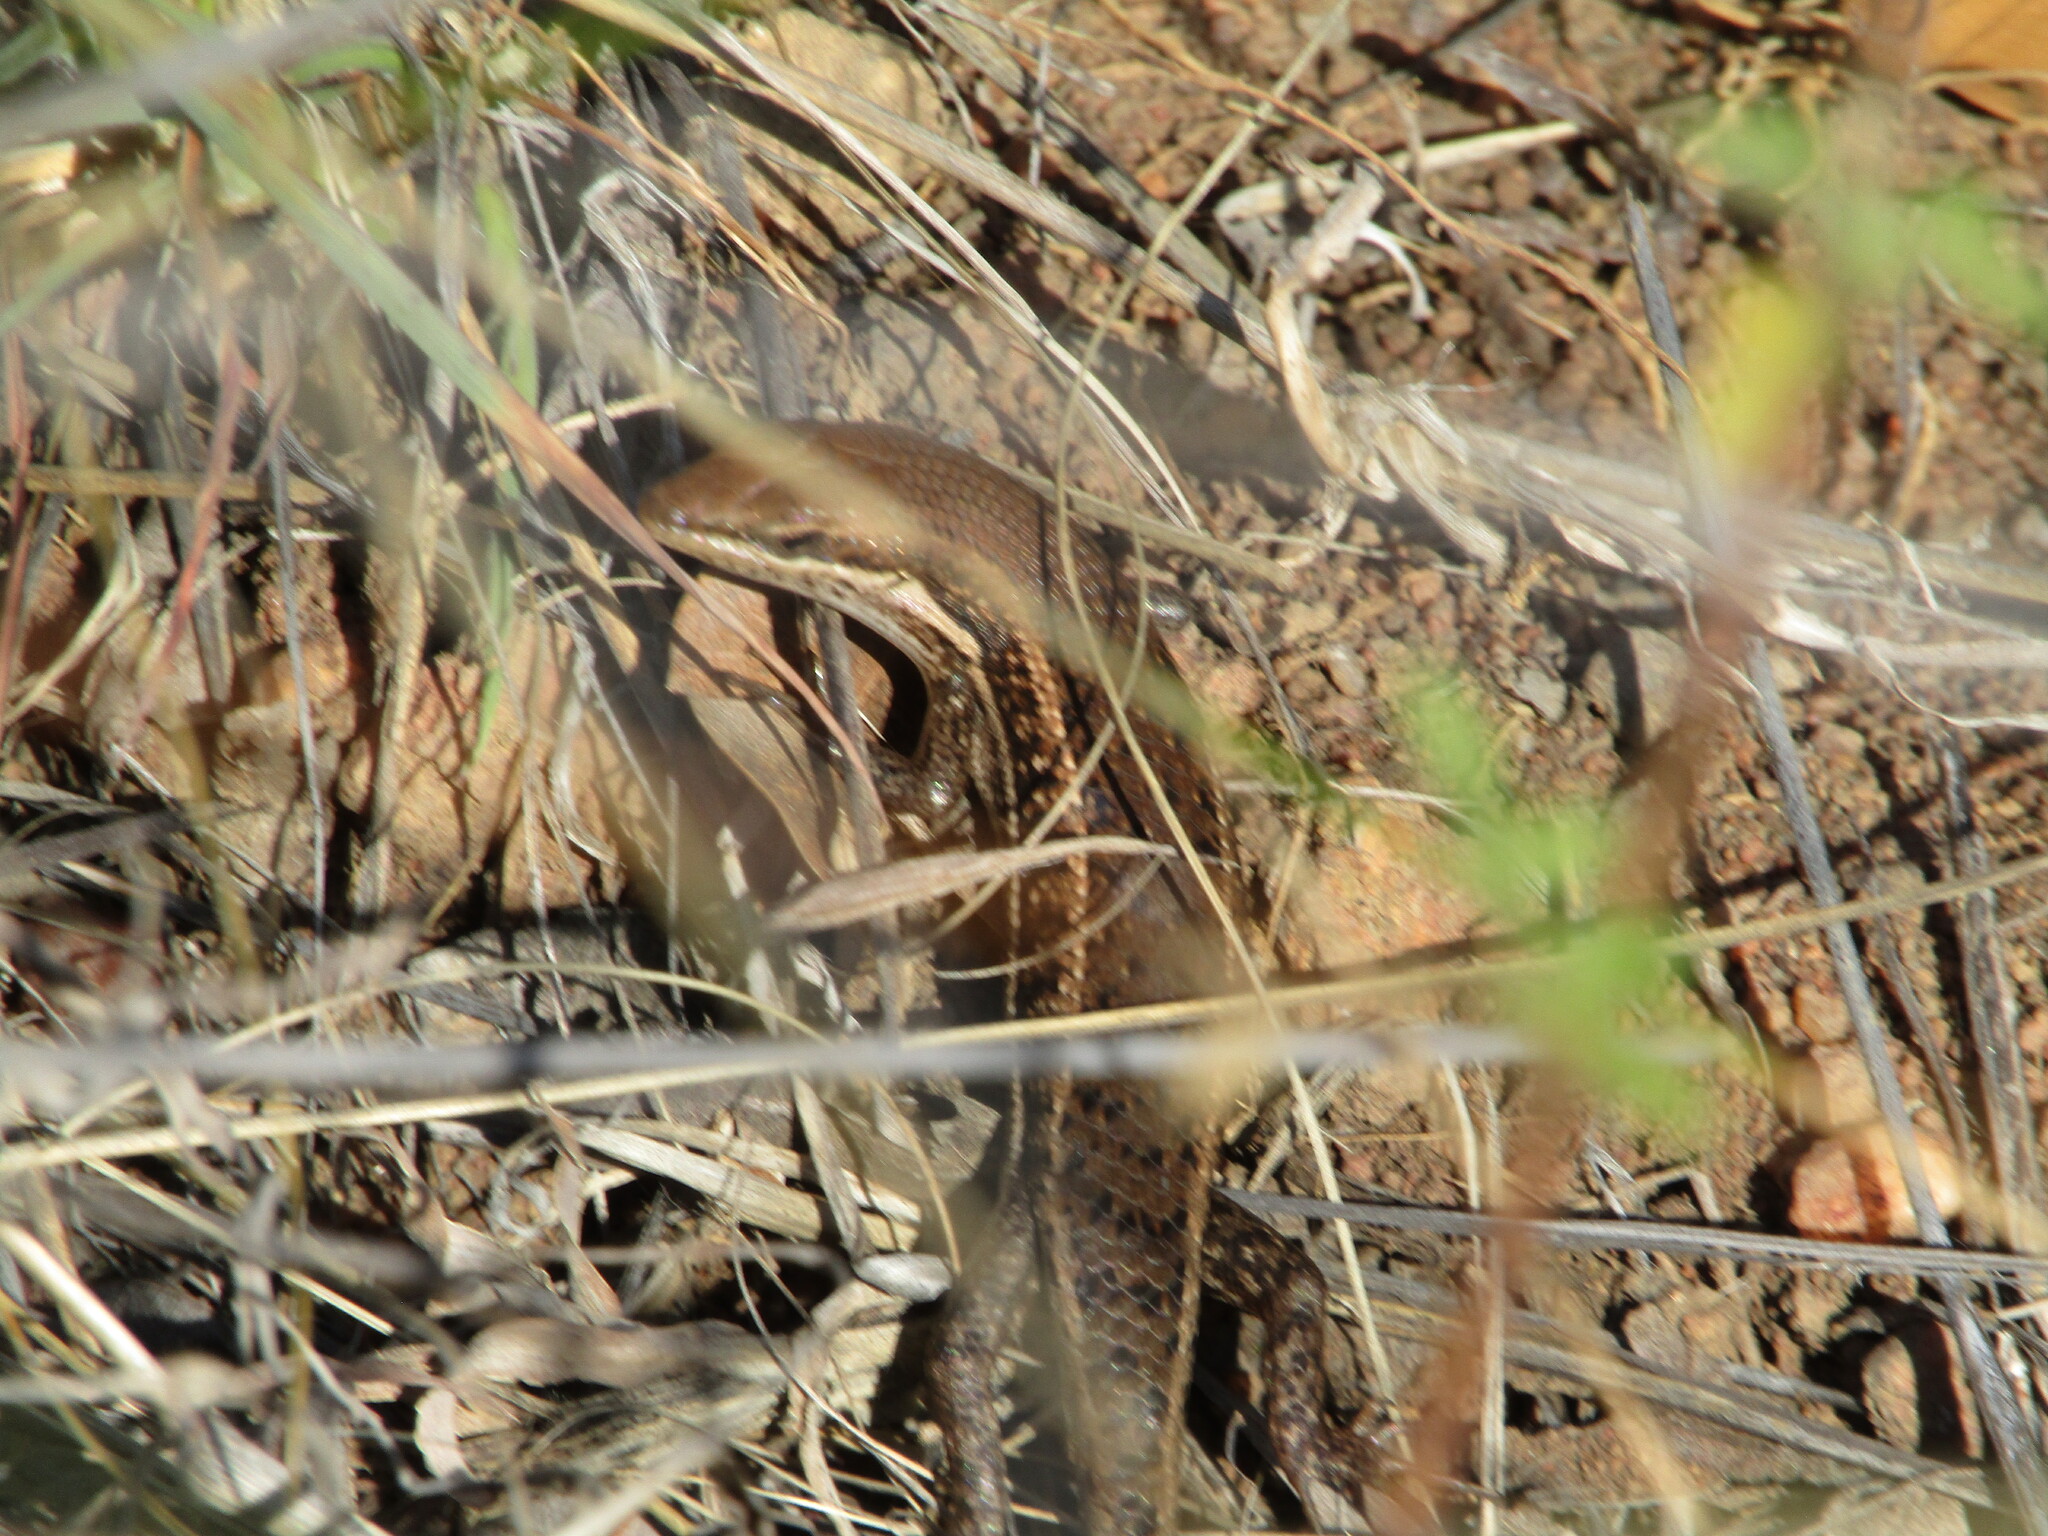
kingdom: Animalia
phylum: Chordata
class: Squamata
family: Scincidae
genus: Trachylepis
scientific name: Trachylepis varia
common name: Eastern variable skink
